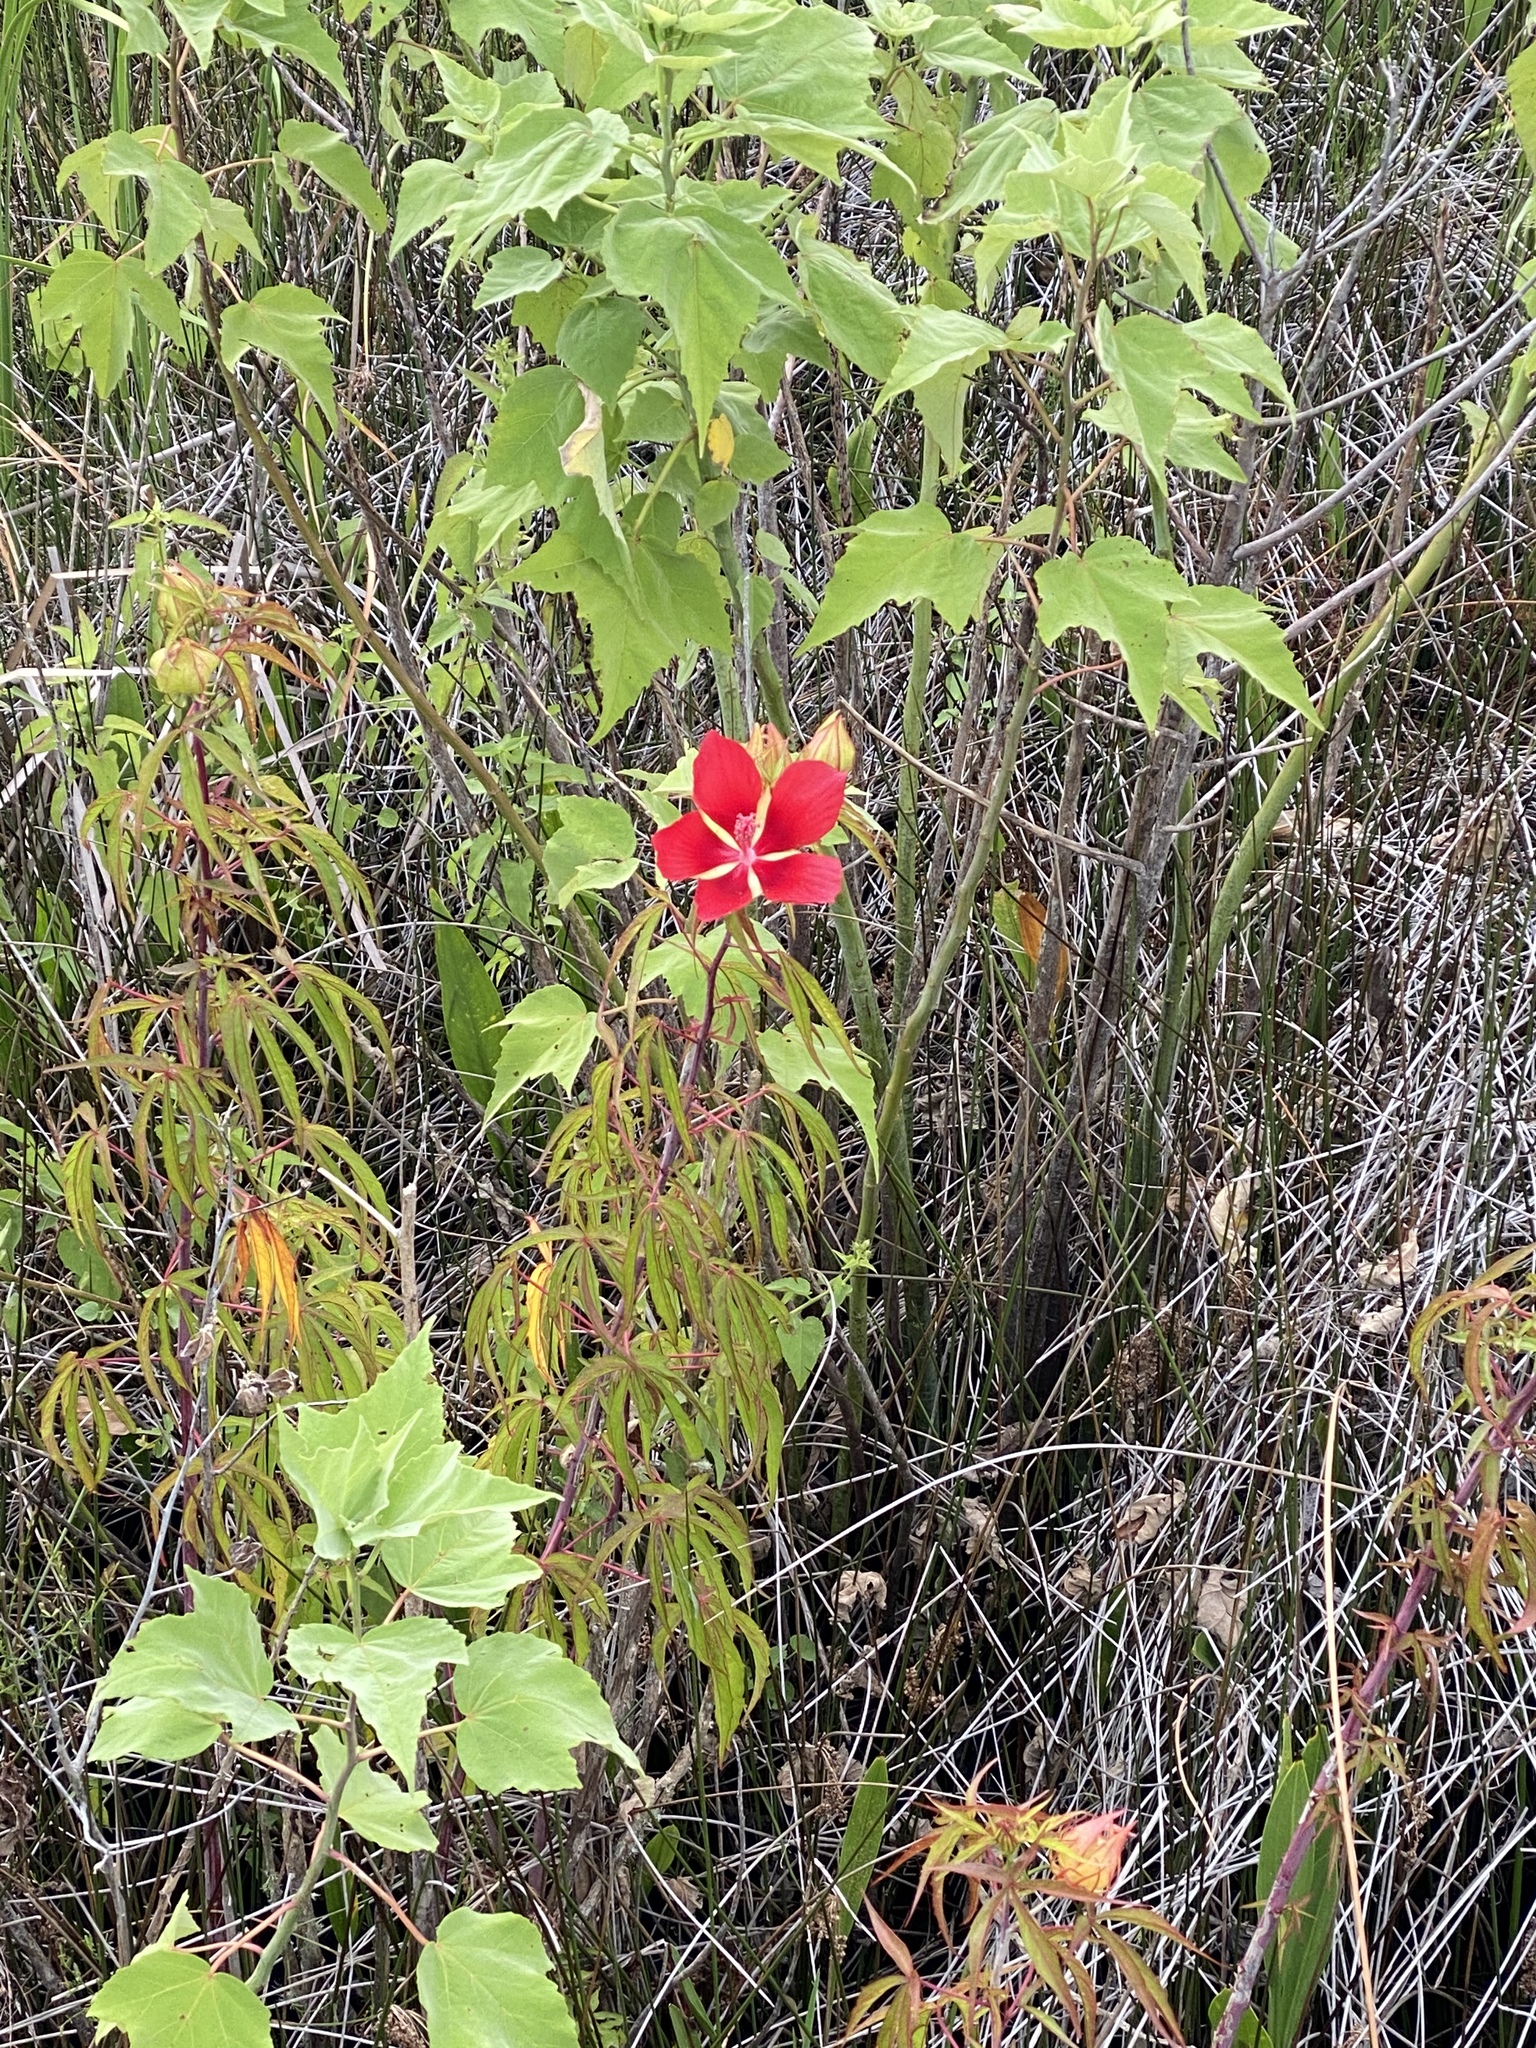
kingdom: Plantae
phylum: Tracheophyta
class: Magnoliopsida
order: Malvales
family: Malvaceae
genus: Hibiscus
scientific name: Hibiscus coccineus
